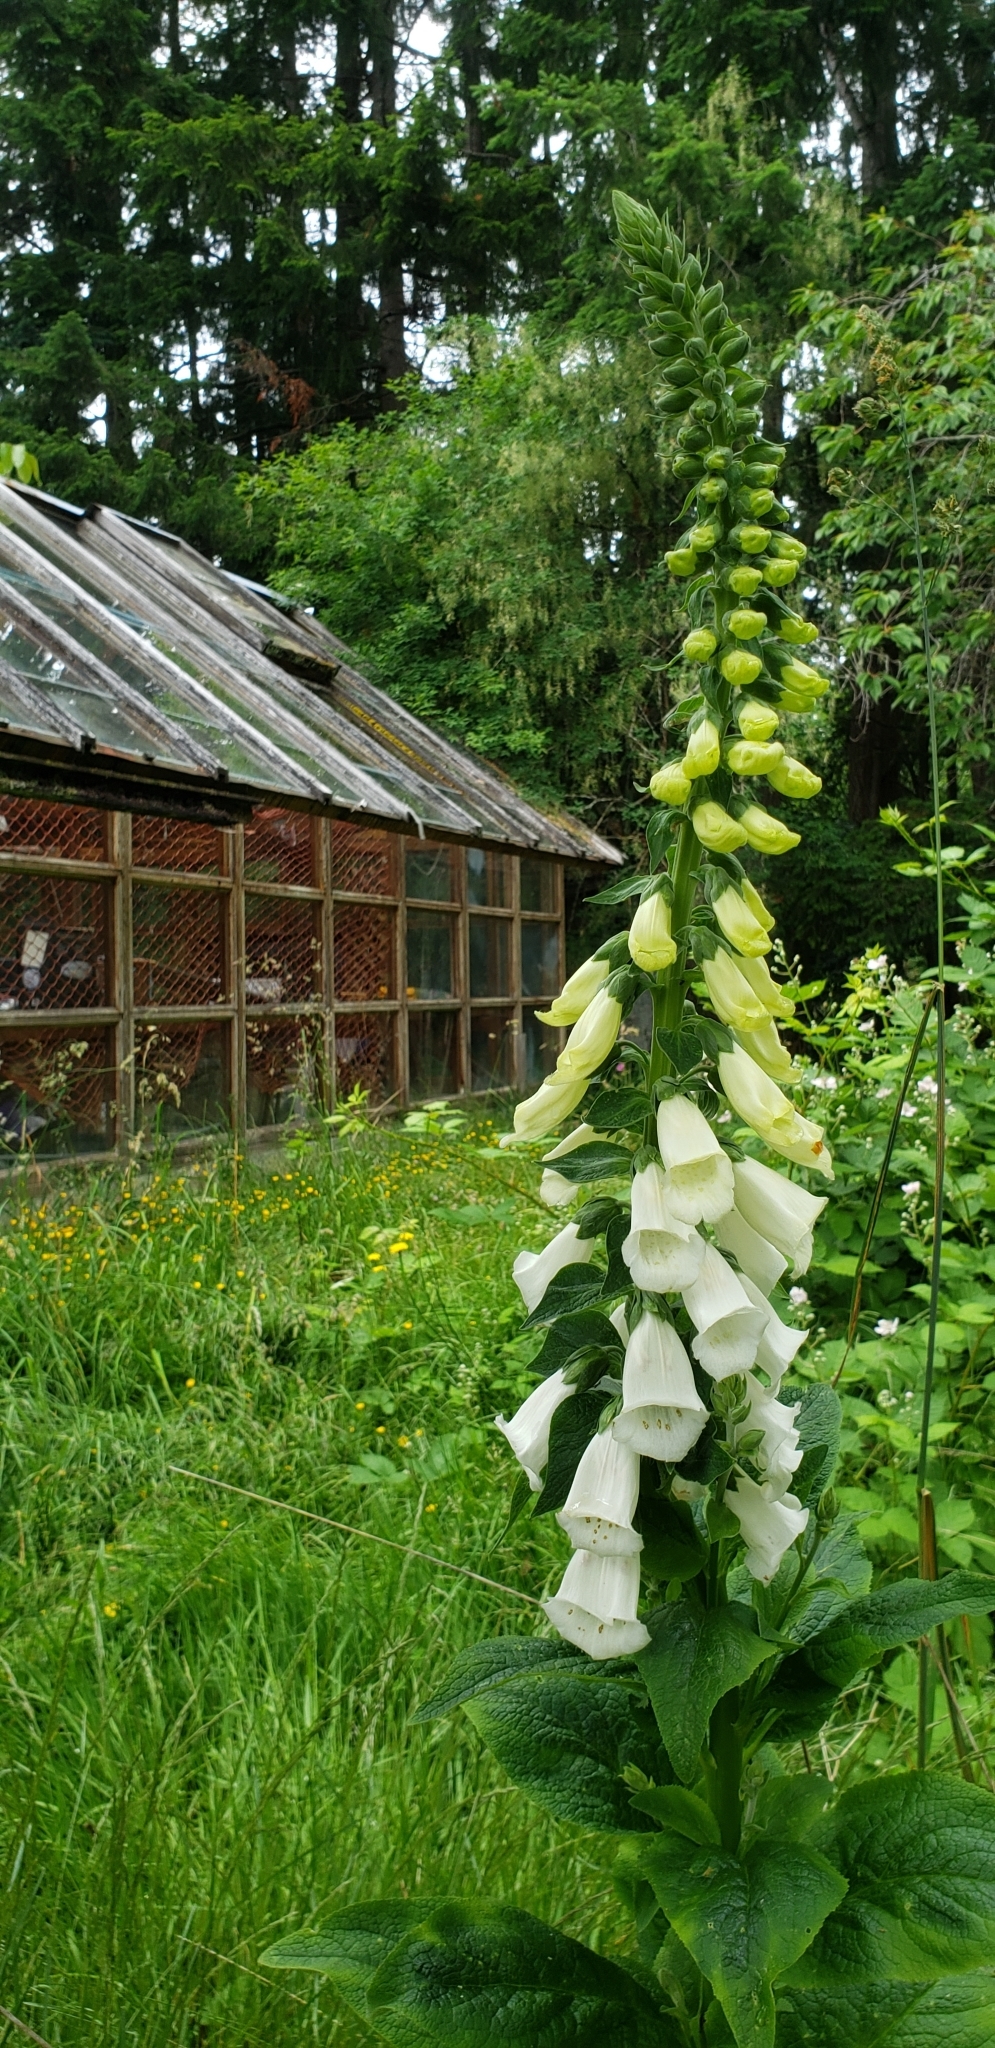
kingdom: Plantae
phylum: Tracheophyta
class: Magnoliopsida
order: Lamiales
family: Plantaginaceae
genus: Digitalis
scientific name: Digitalis purpurea
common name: Foxglove
